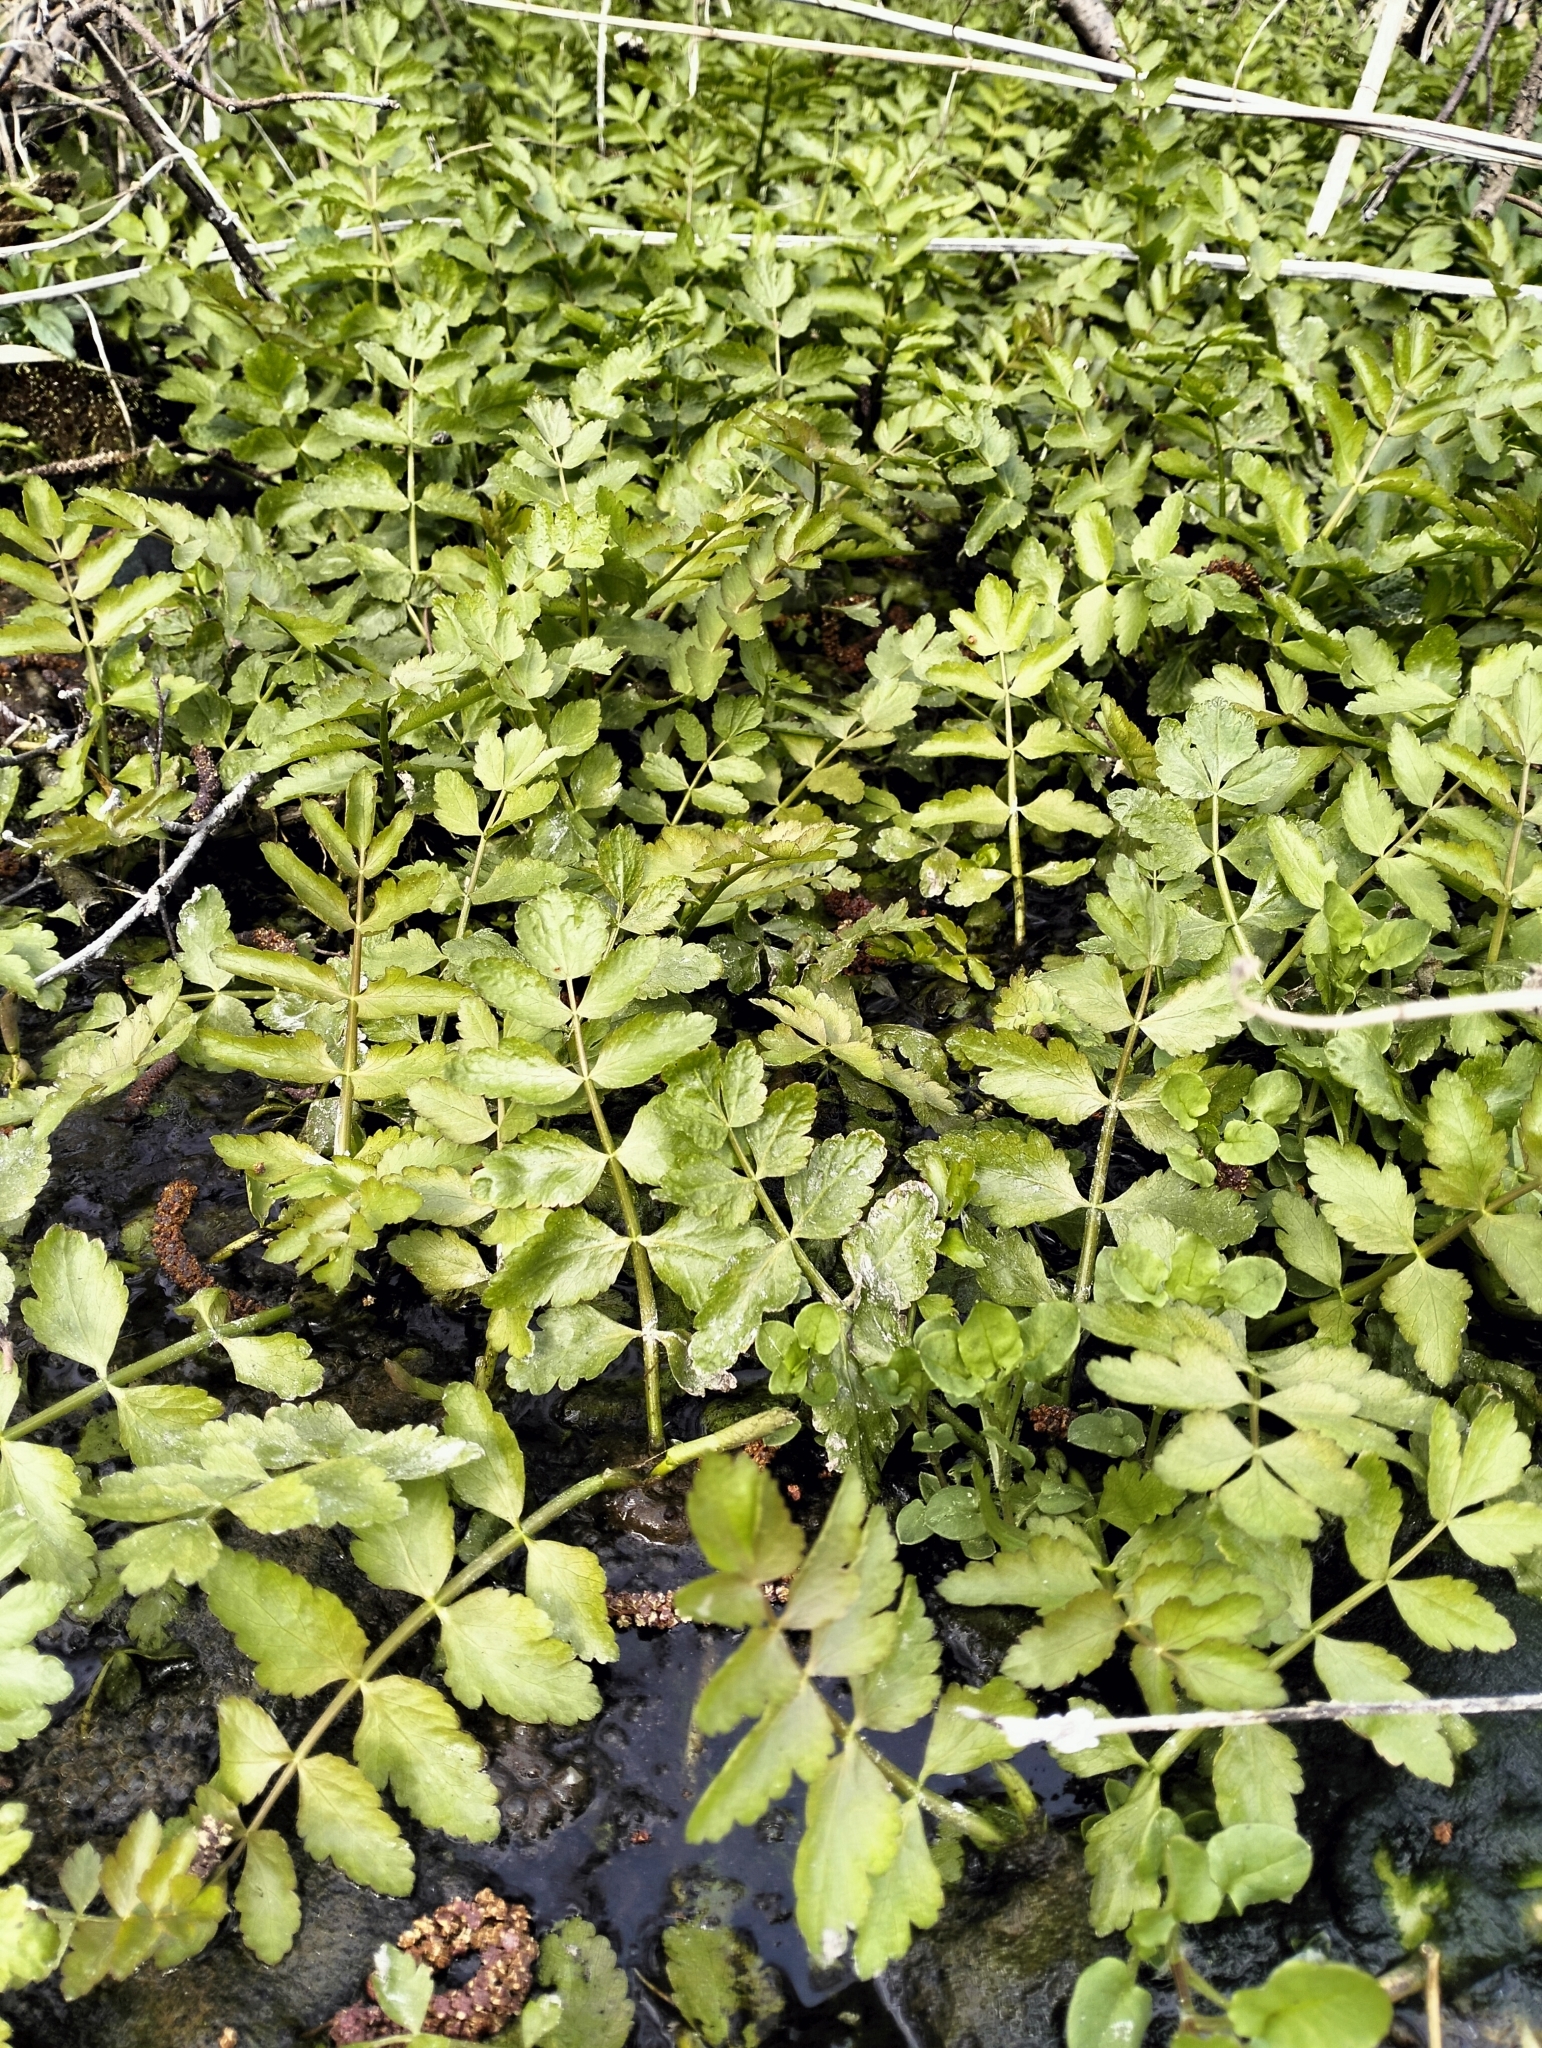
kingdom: Plantae
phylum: Tracheophyta
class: Magnoliopsida
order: Apiales
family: Apiaceae
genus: Berula
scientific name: Berula erecta
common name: Lesser water-parsnip
